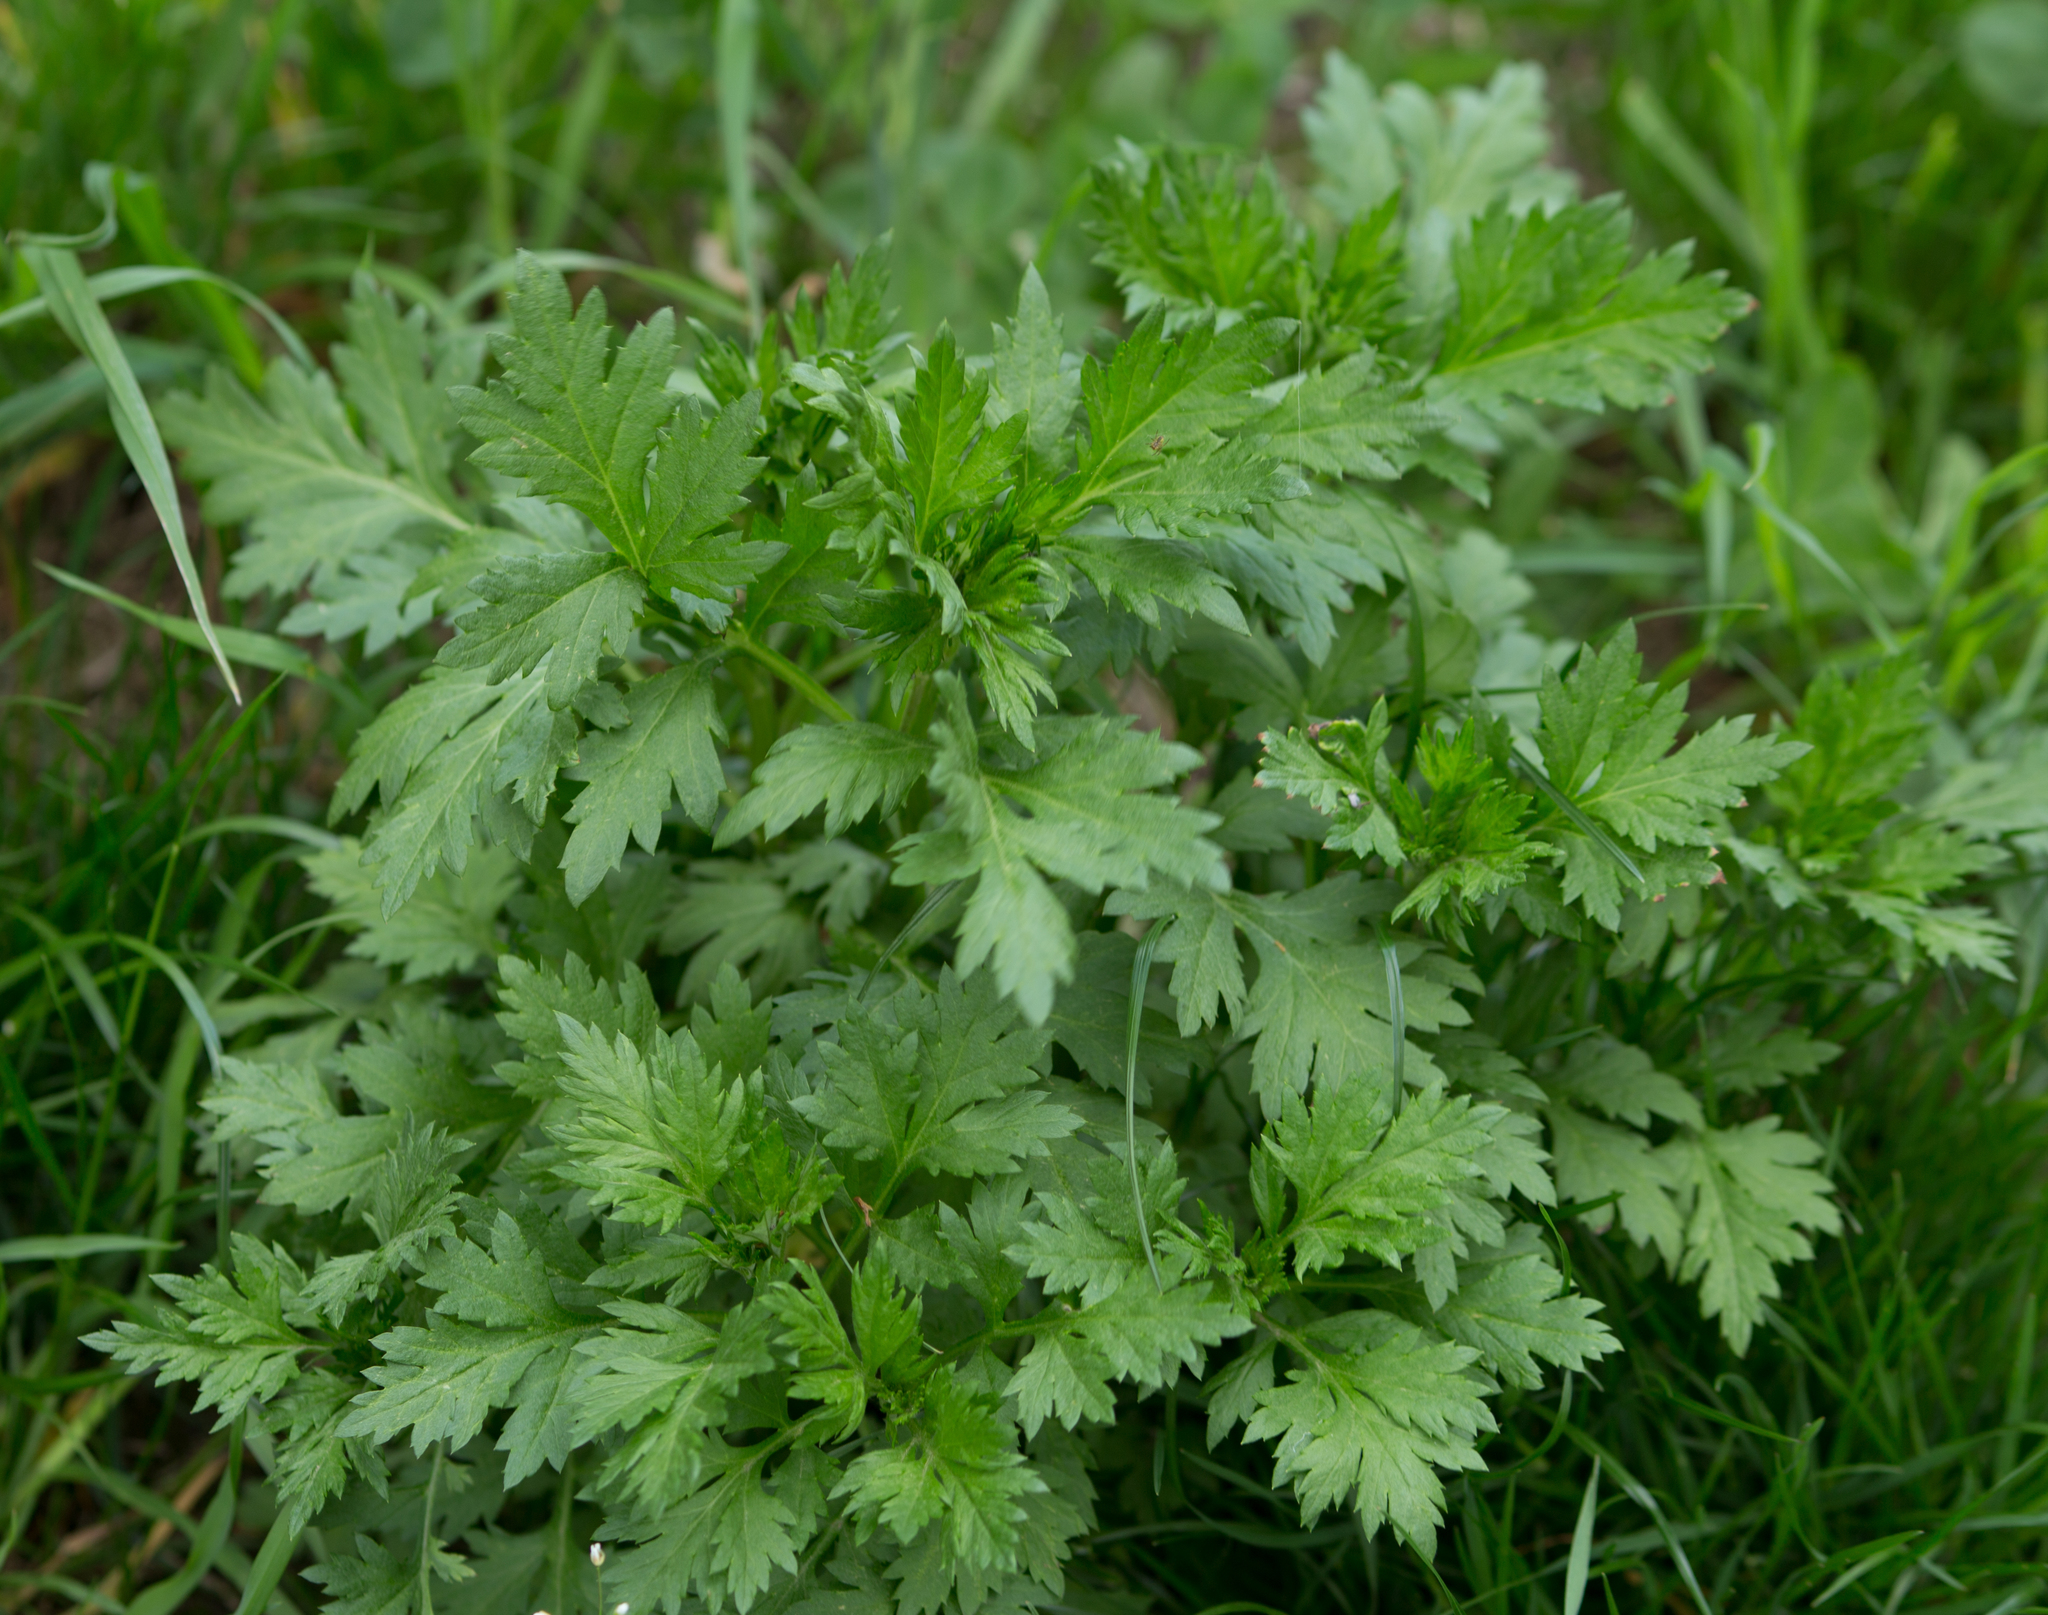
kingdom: Plantae
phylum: Tracheophyta
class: Magnoliopsida
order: Asterales
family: Asteraceae
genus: Artemisia
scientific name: Artemisia vulgaris
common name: Mugwort
